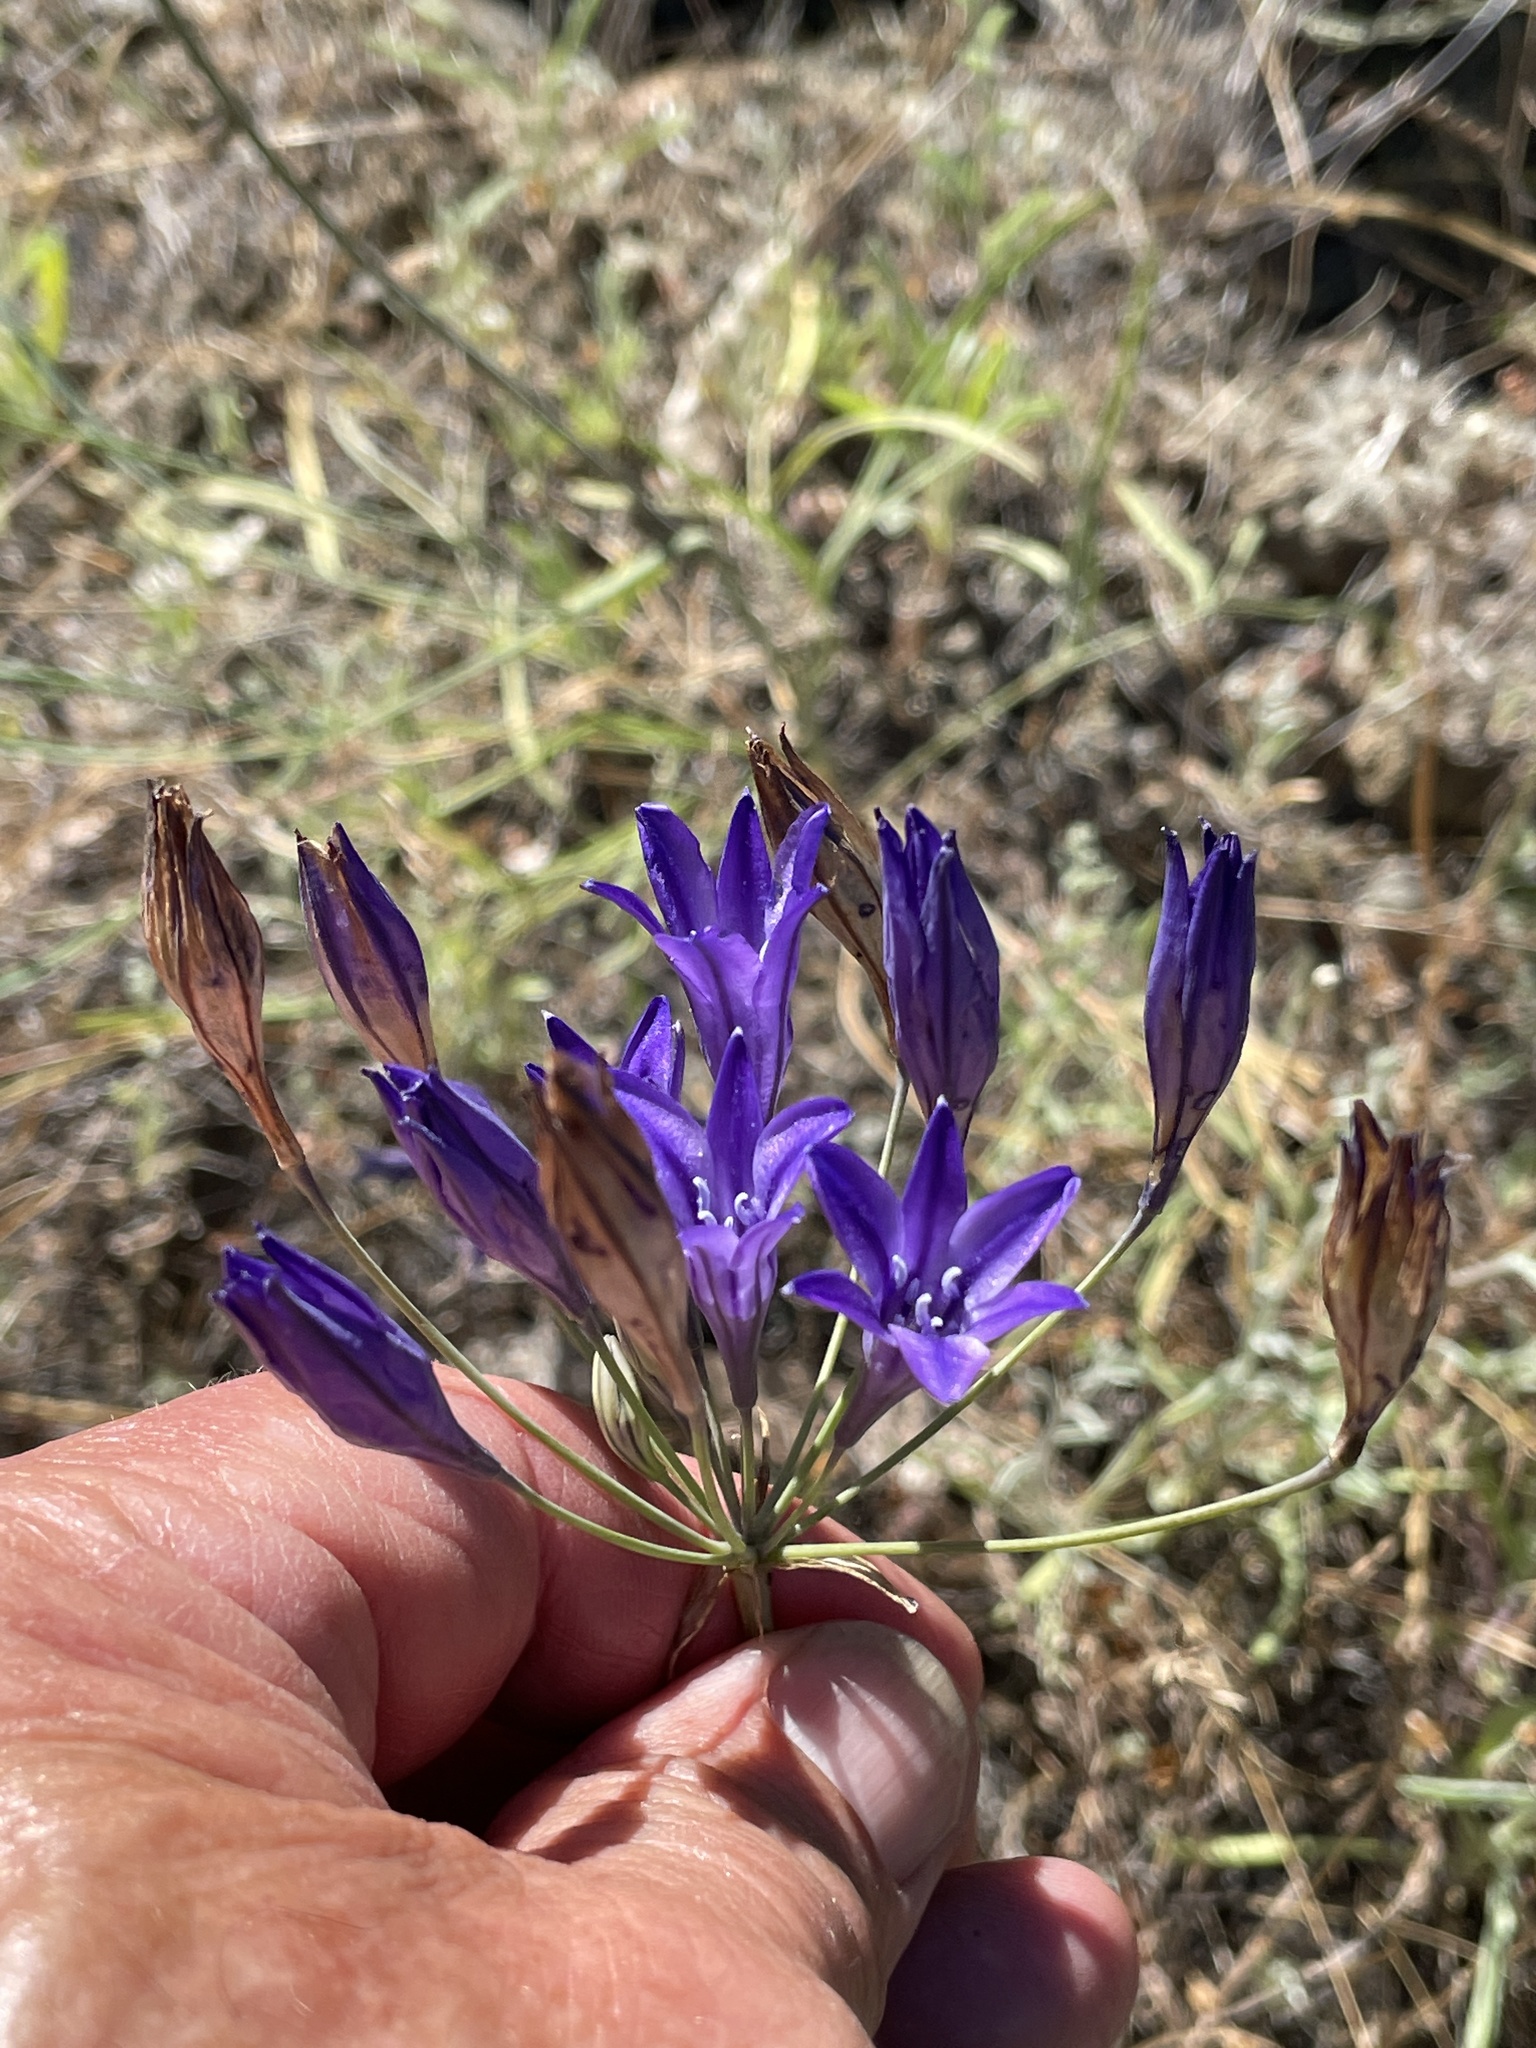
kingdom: Plantae
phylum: Tracheophyta
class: Liliopsida
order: Asparagales
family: Asparagaceae
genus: Triteleia
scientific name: Triteleia laxa
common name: Triplet-lily
